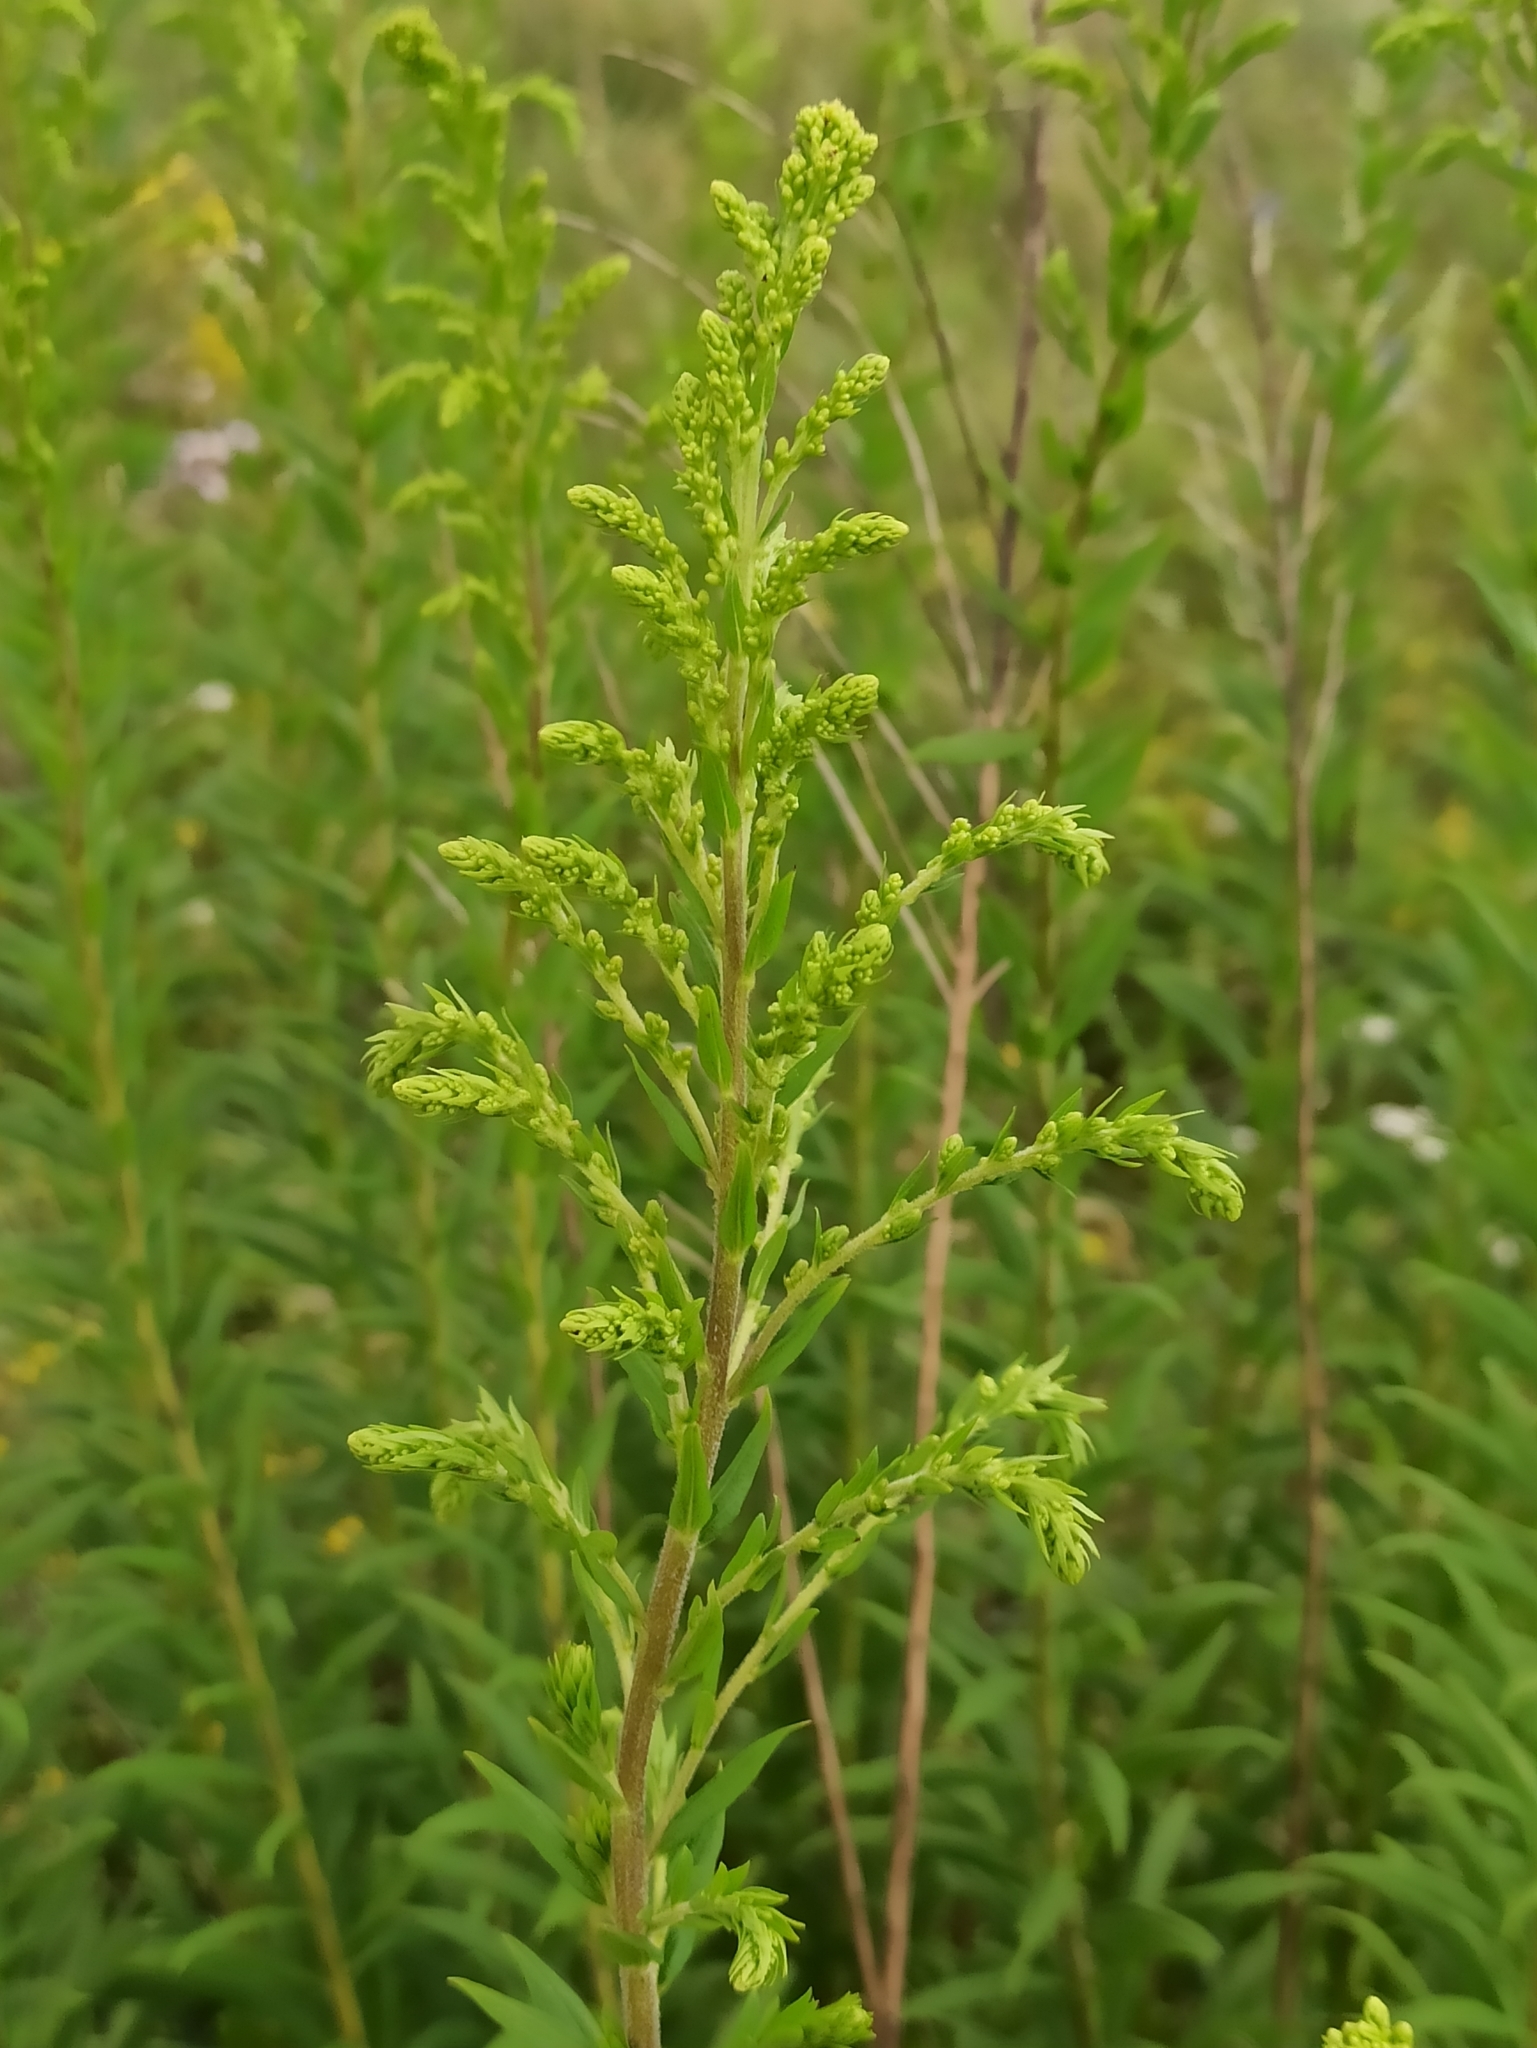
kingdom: Plantae
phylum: Tracheophyta
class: Magnoliopsida
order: Asterales
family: Asteraceae
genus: Solidago
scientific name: Solidago canadensis
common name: Canada goldenrod
